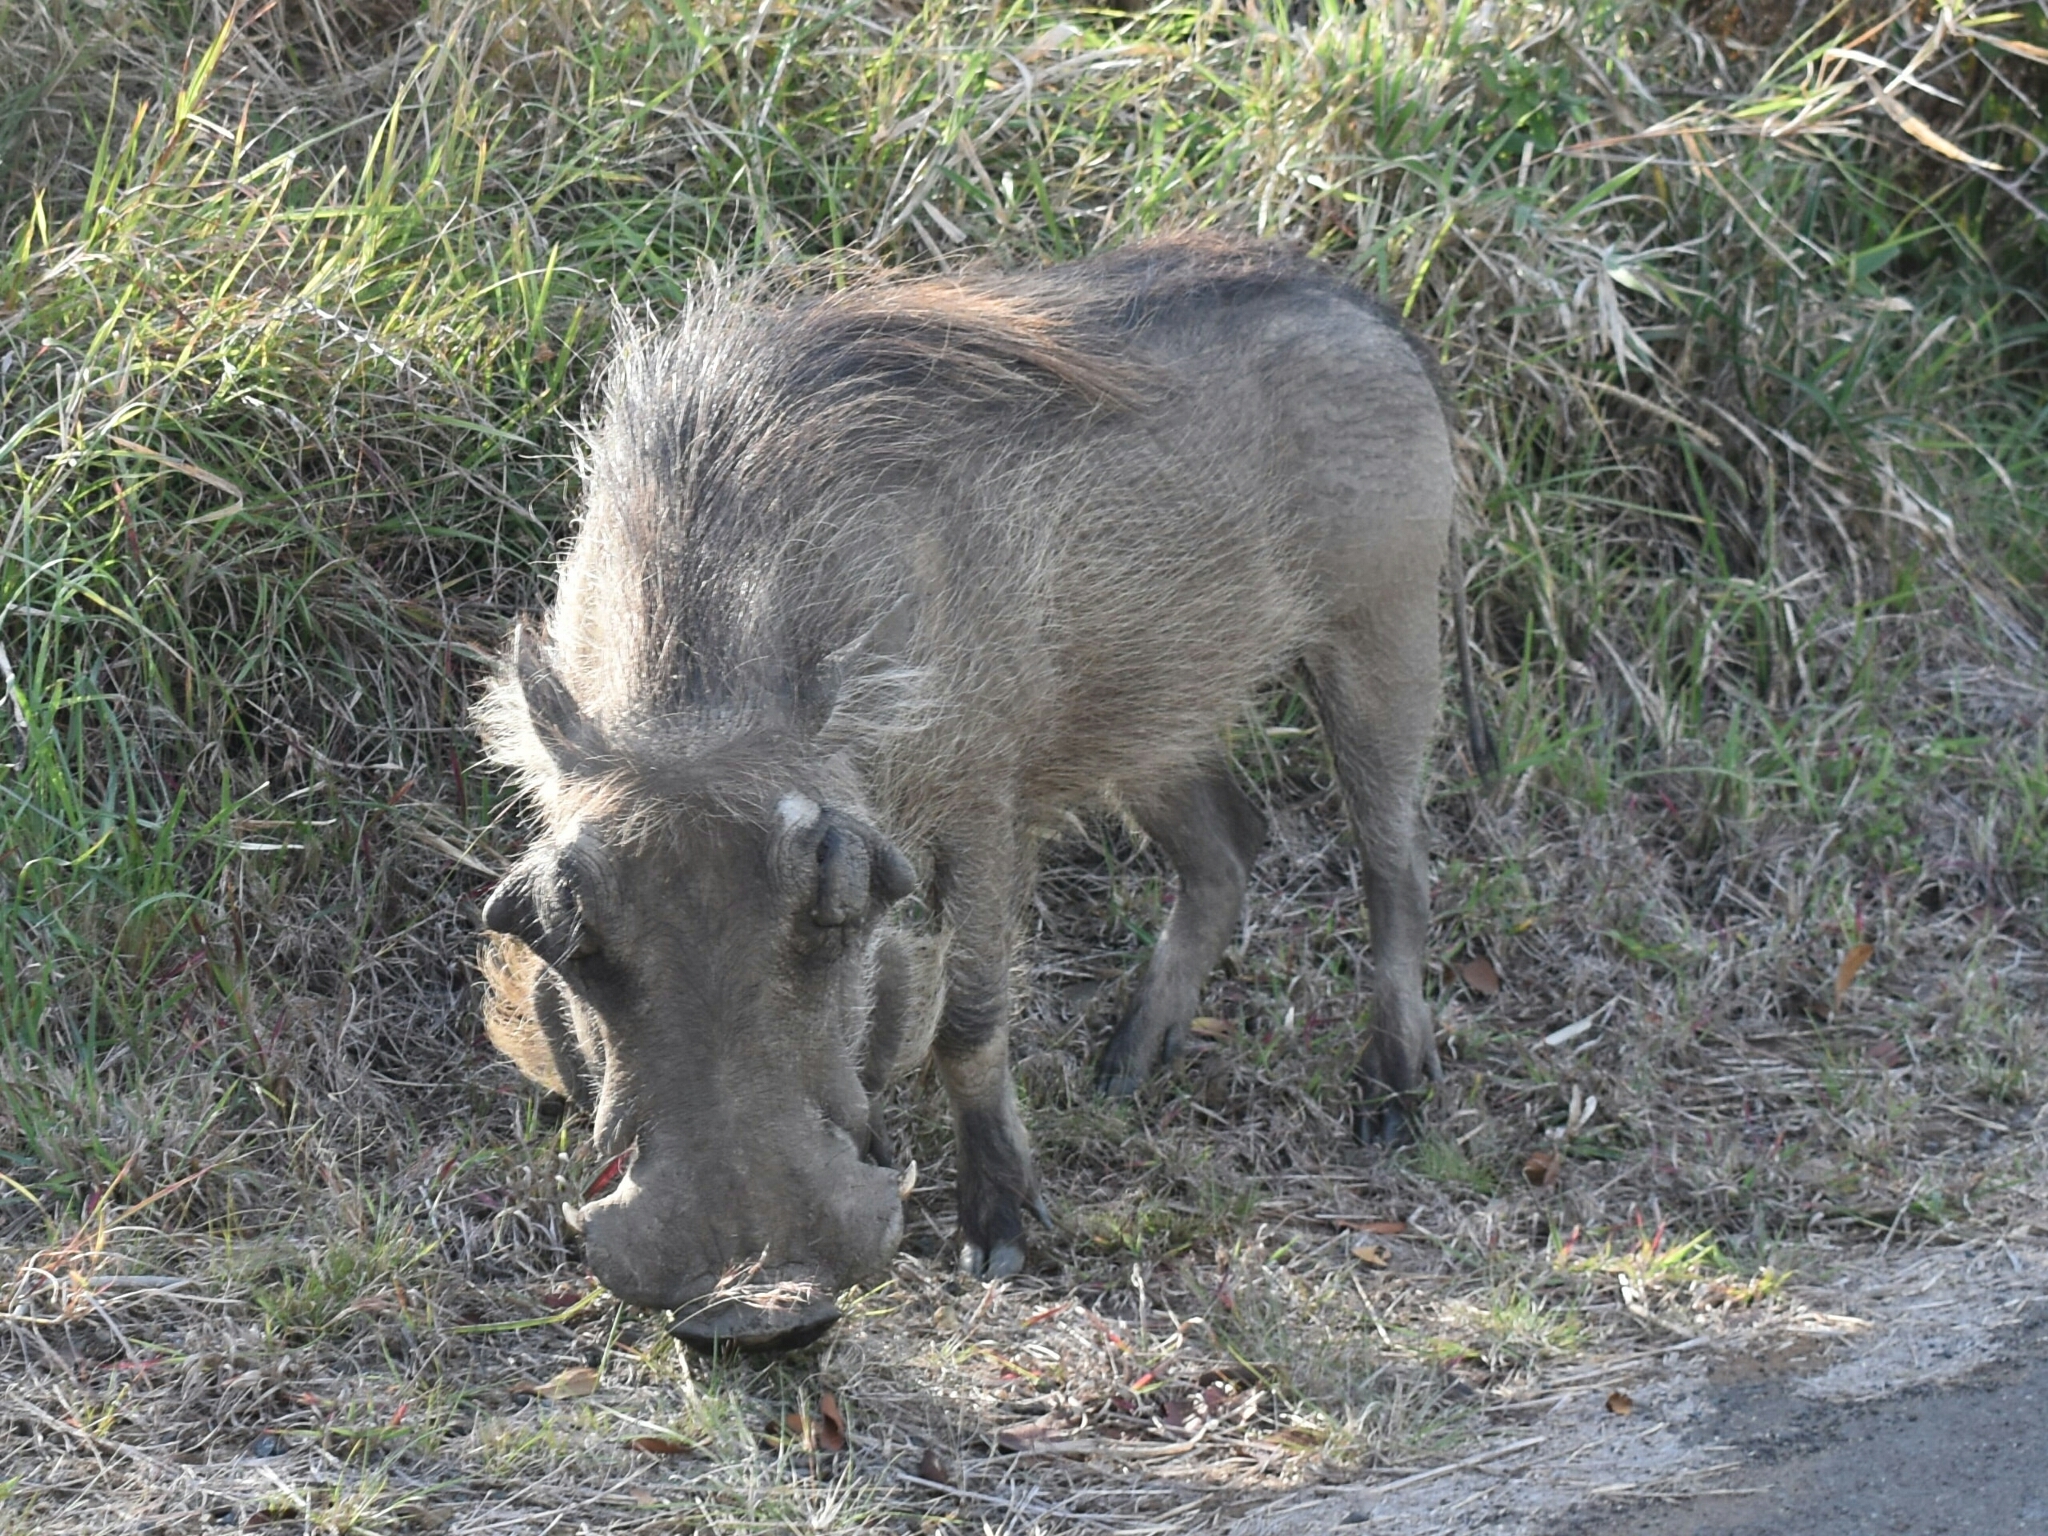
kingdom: Animalia
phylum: Chordata
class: Mammalia
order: Artiodactyla
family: Suidae
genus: Phacochoerus
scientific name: Phacochoerus africanus
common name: Common warthog
